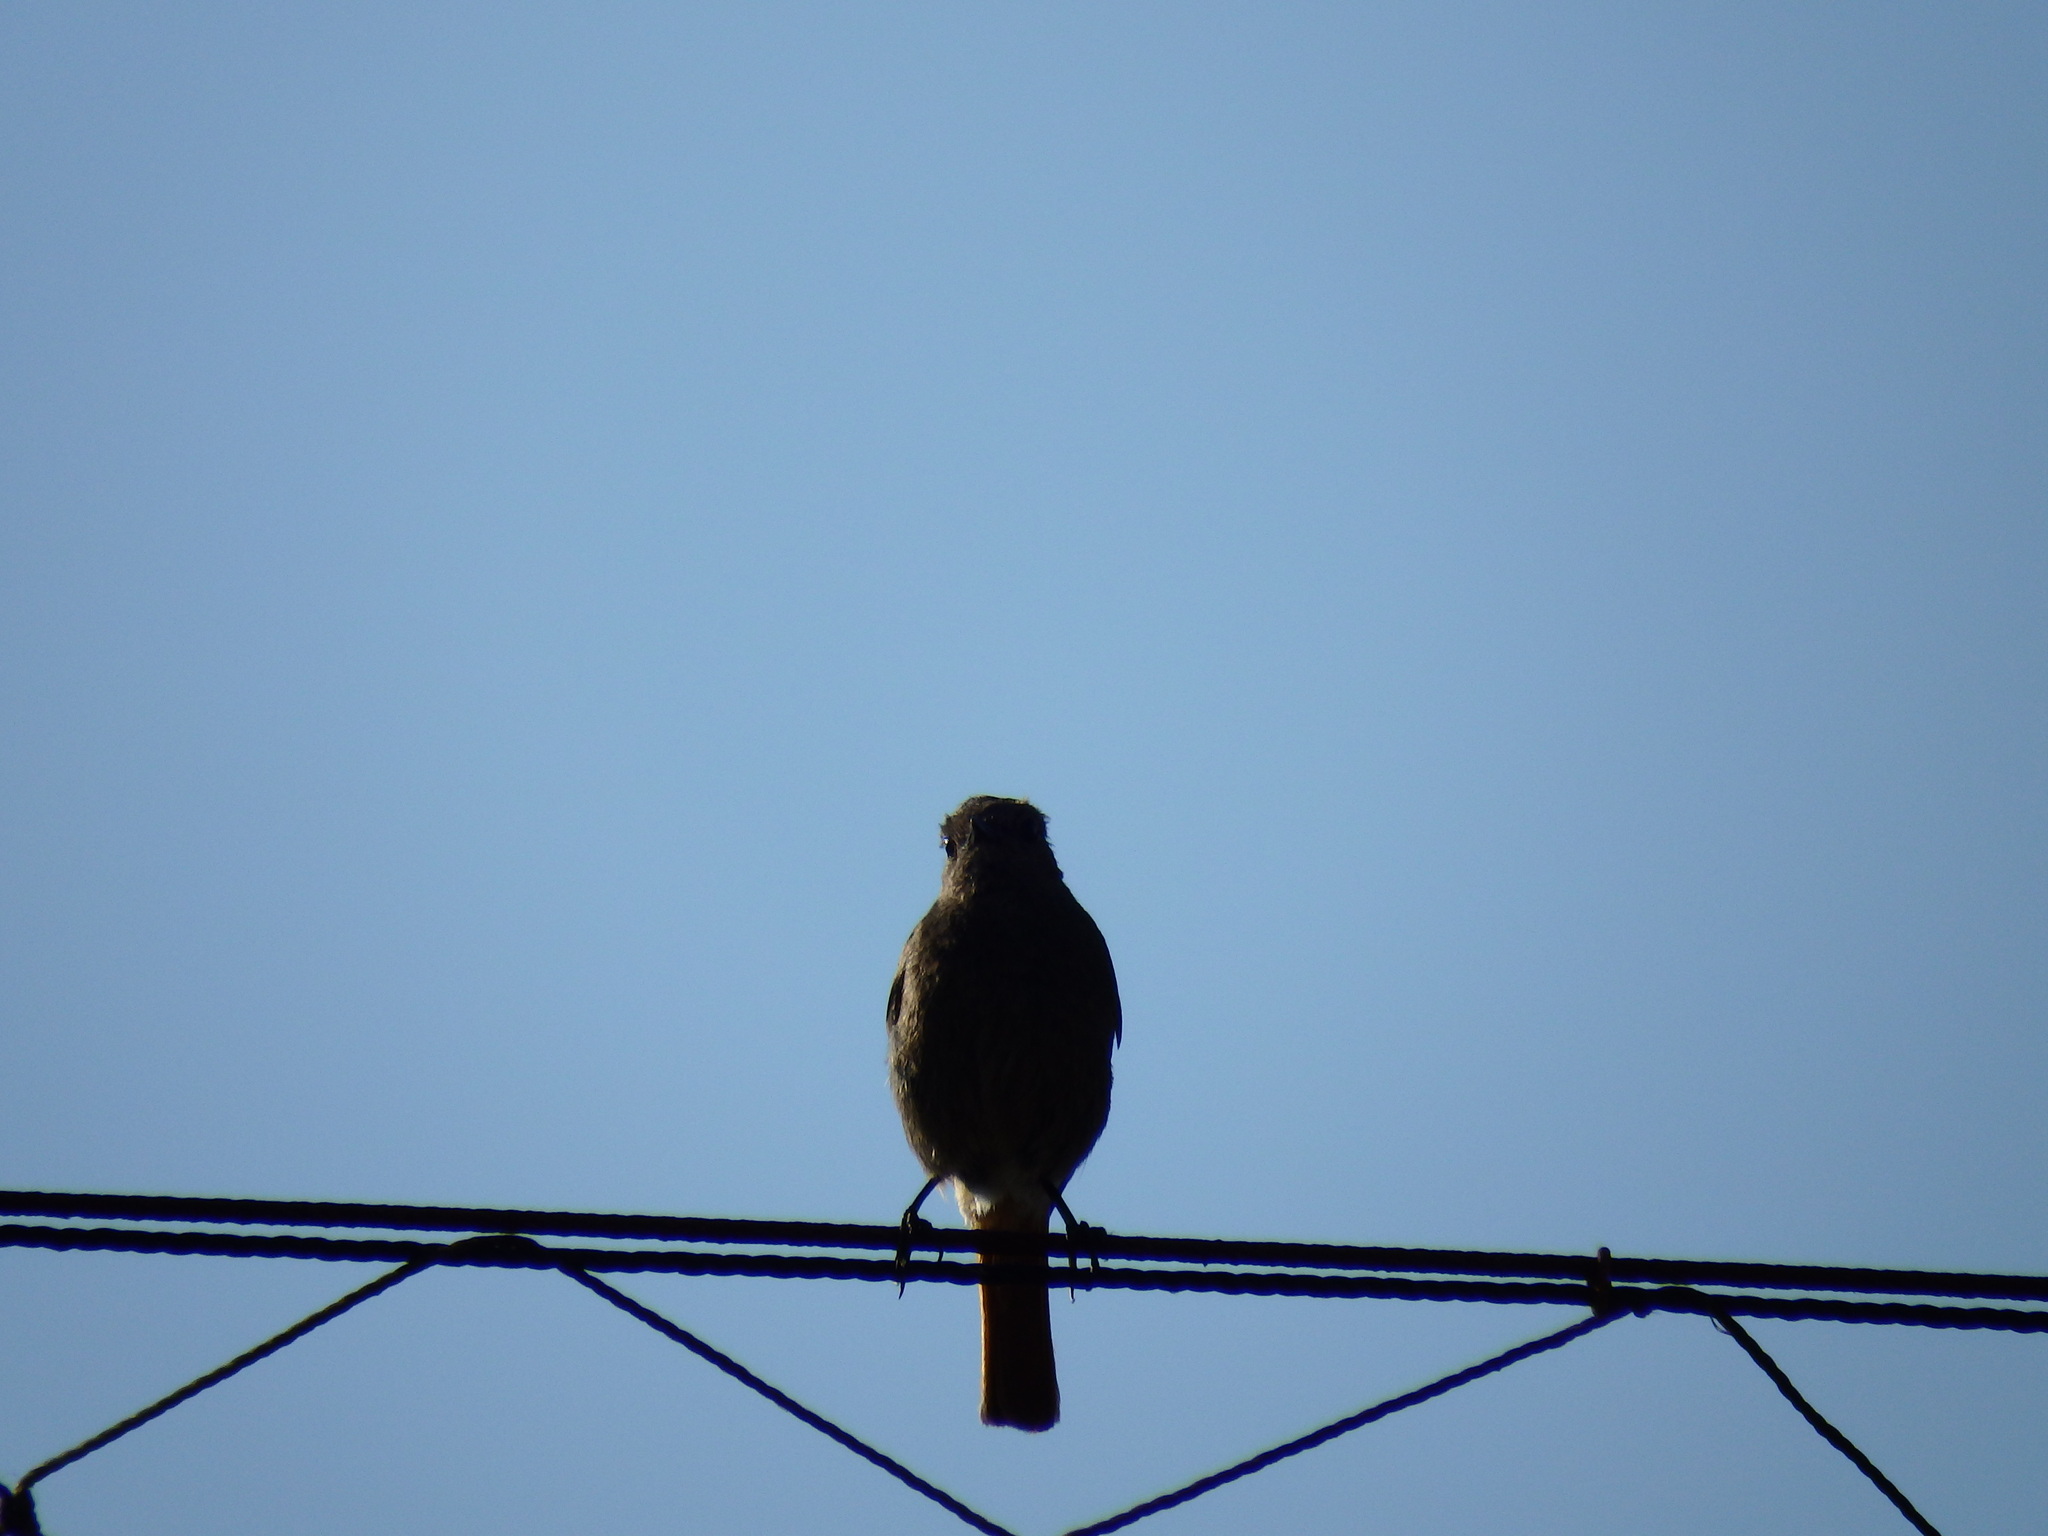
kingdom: Animalia
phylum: Chordata
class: Aves
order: Passeriformes
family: Muscicapidae
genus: Phoenicurus
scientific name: Phoenicurus ochruros
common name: Black redstart
